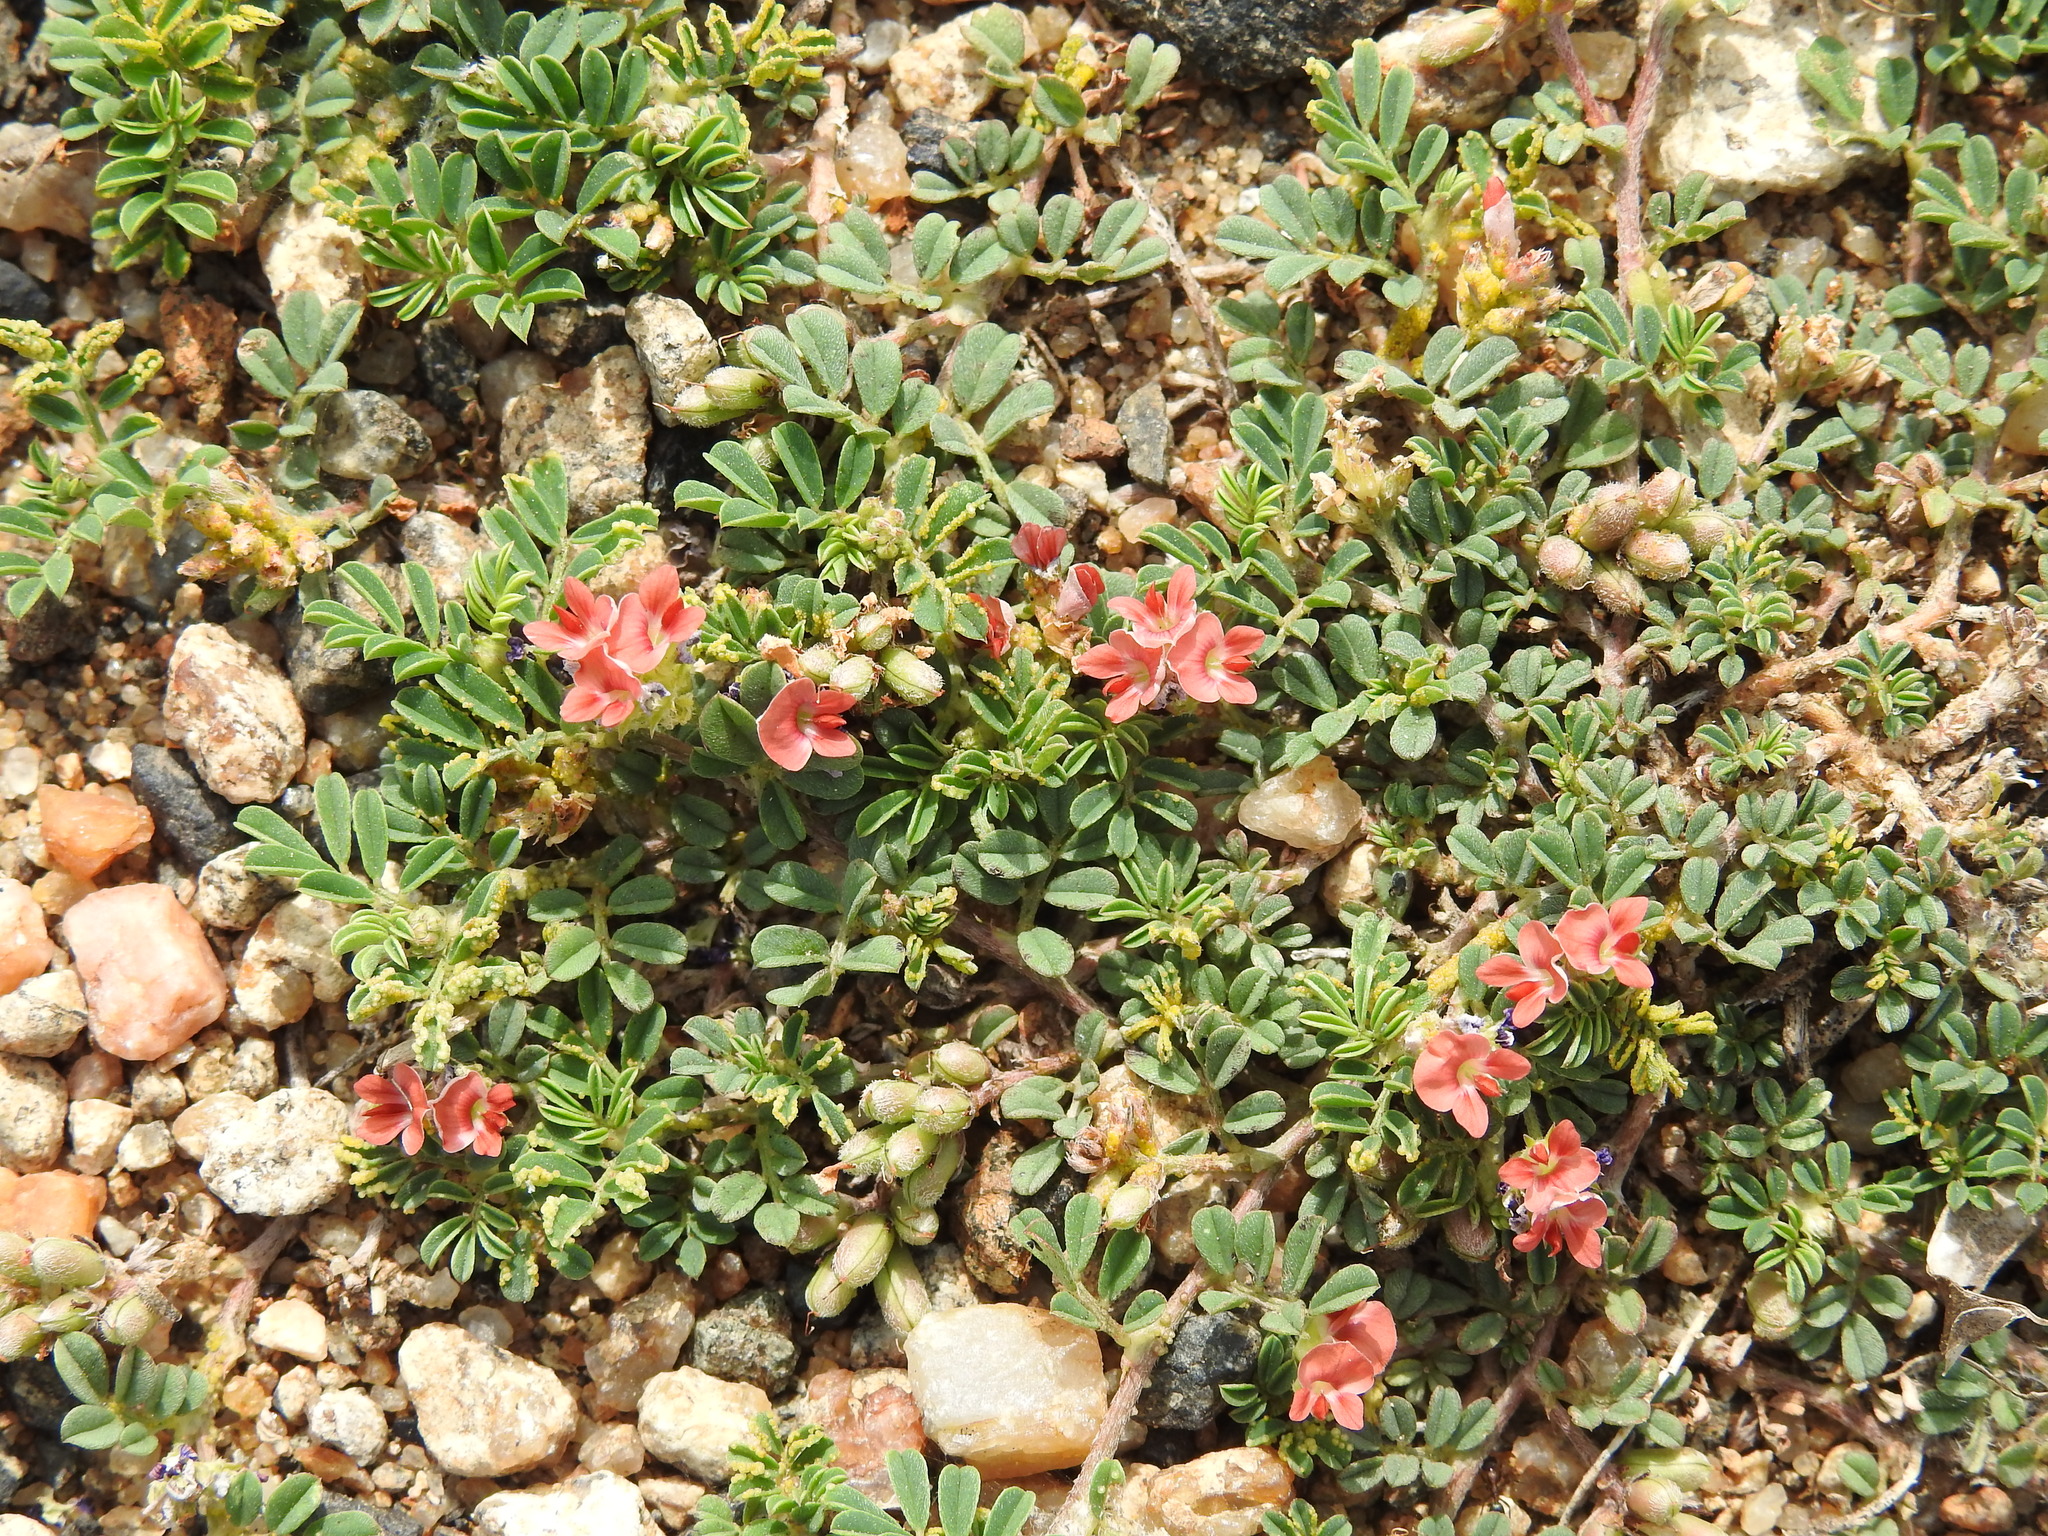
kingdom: Plantae
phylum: Tracheophyta
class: Magnoliopsida
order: Fabales
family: Fabaceae
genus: Indigofera
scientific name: Indigofera linnaei
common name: Nine-leaf indigo
